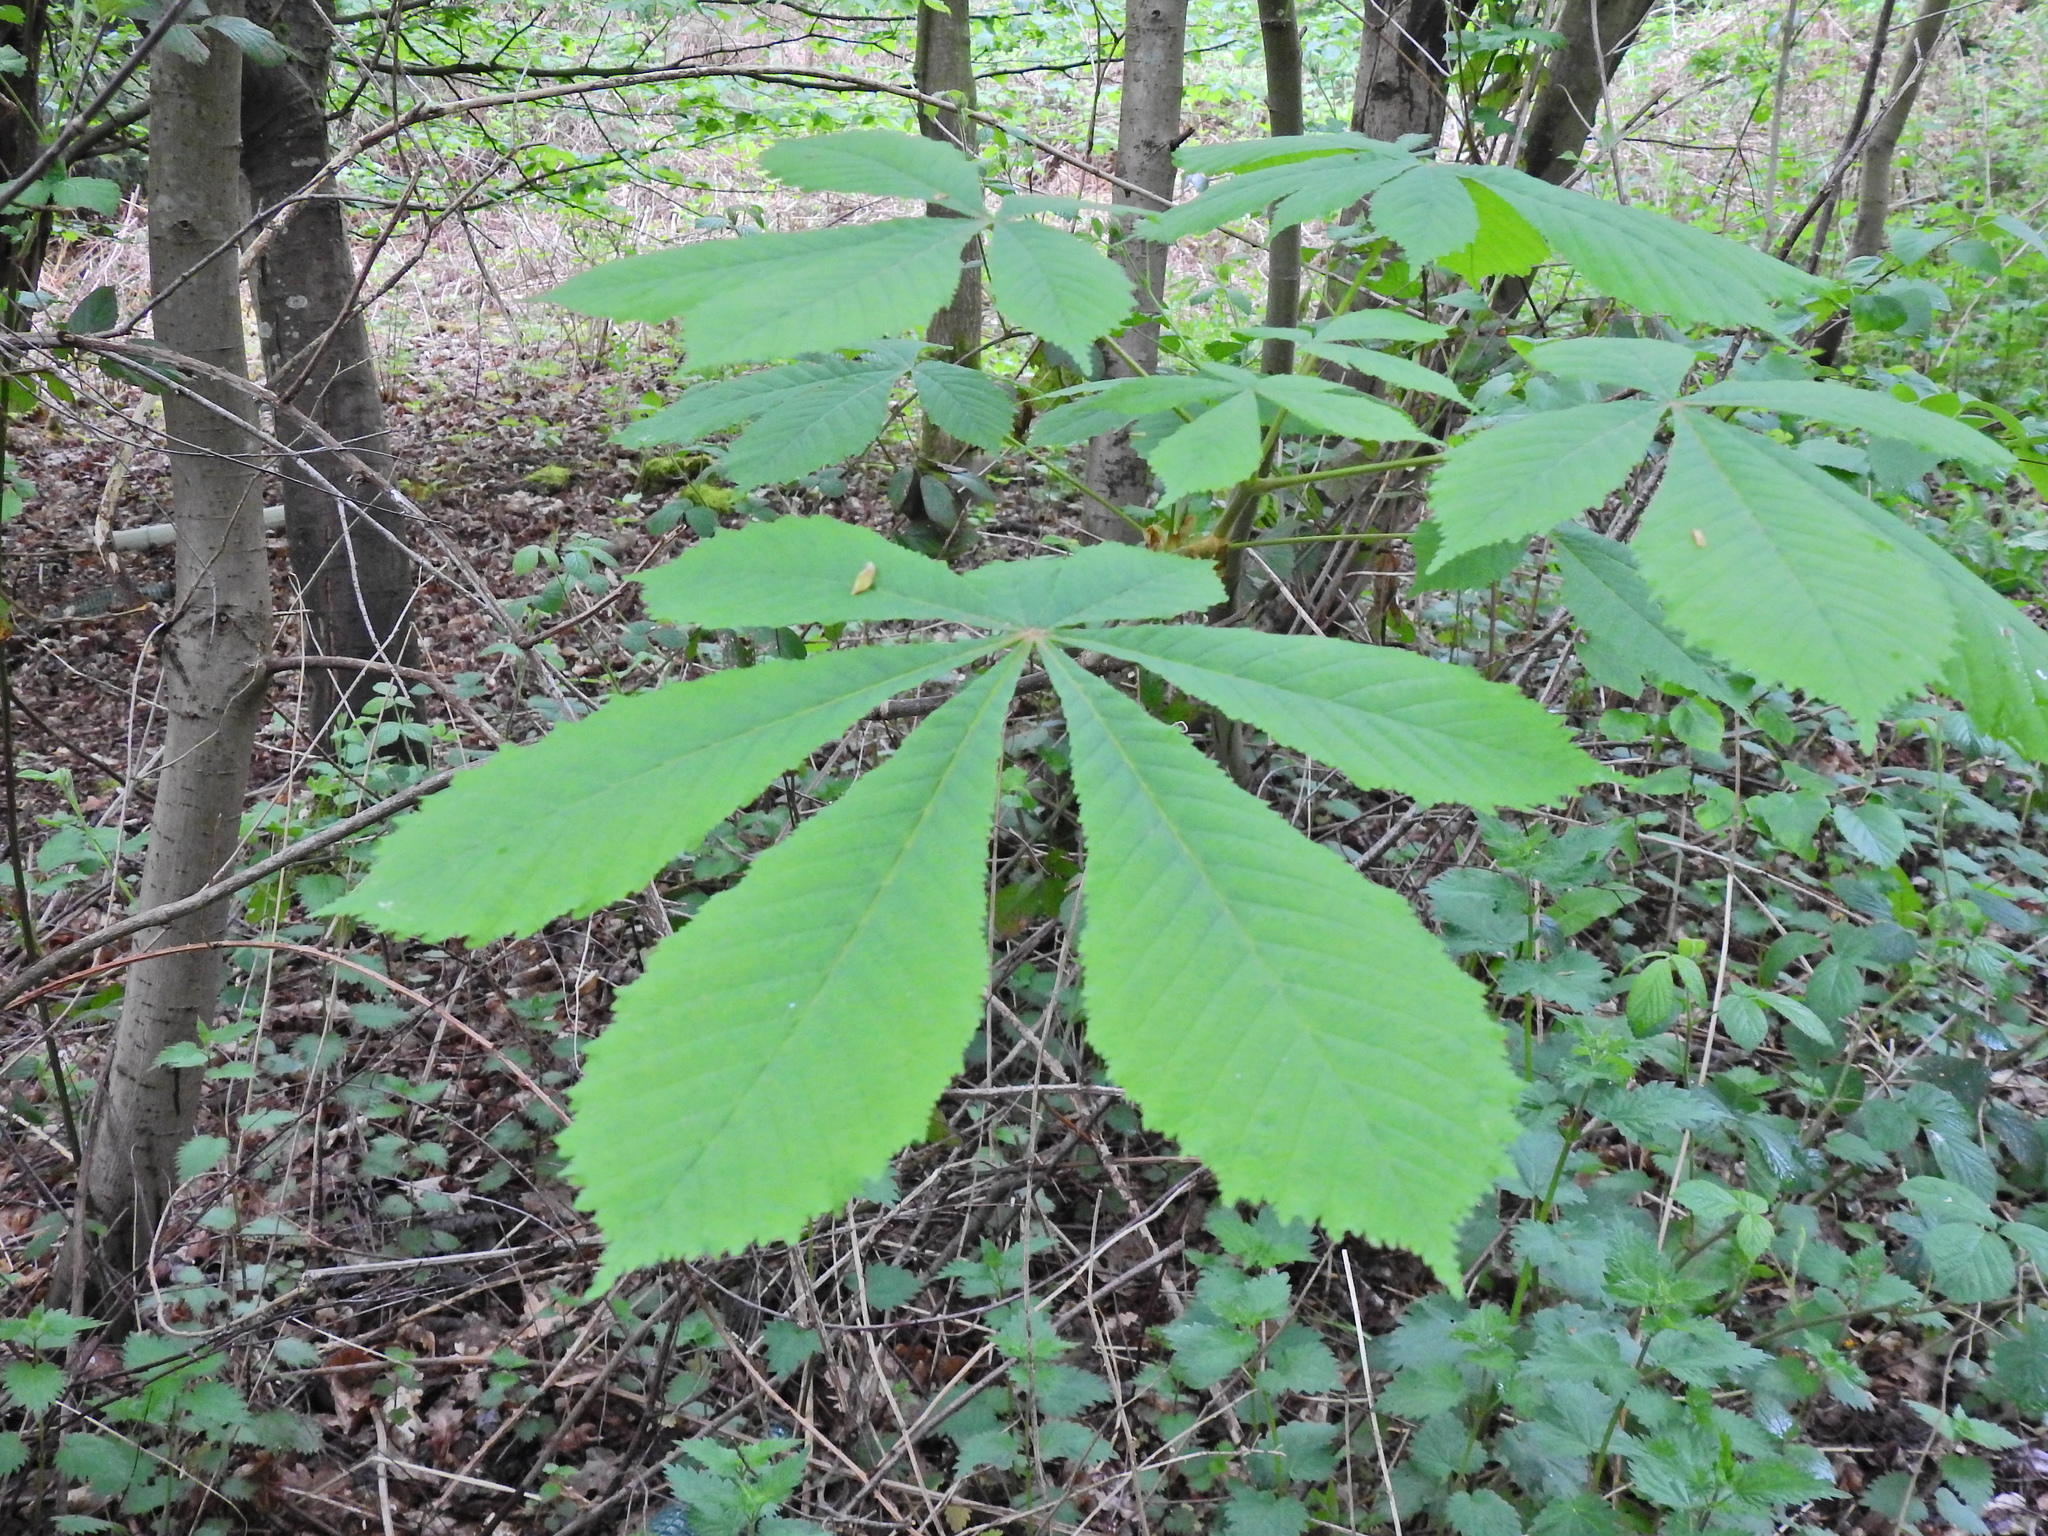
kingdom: Plantae
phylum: Tracheophyta
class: Magnoliopsida
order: Sapindales
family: Sapindaceae
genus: Aesculus
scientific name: Aesculus hippocastanum
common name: Horse-chestnut
